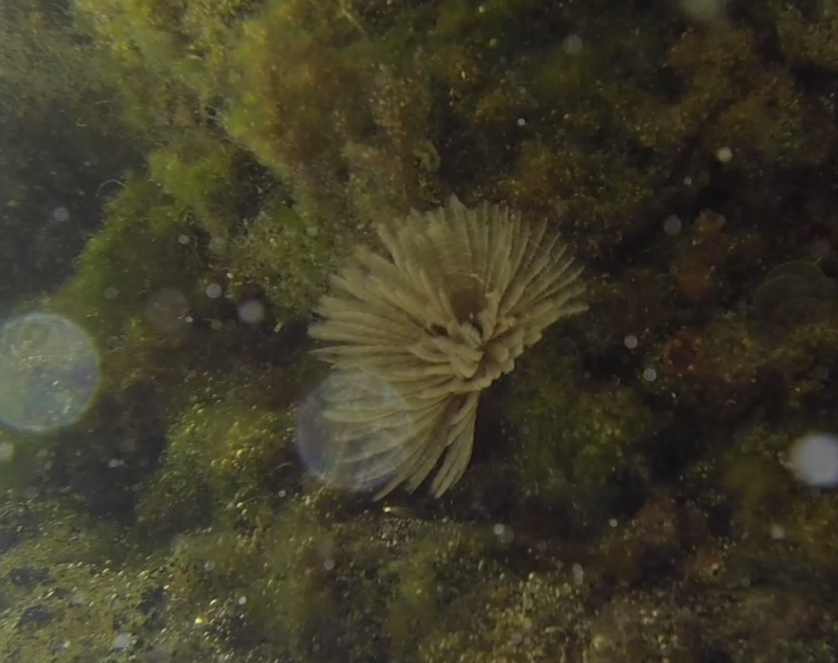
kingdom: Animalia
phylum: Annelida
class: Polychaeta
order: Sabellida
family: Sabellidae
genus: Sabellastarte
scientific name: Sabellastarte australiensis
